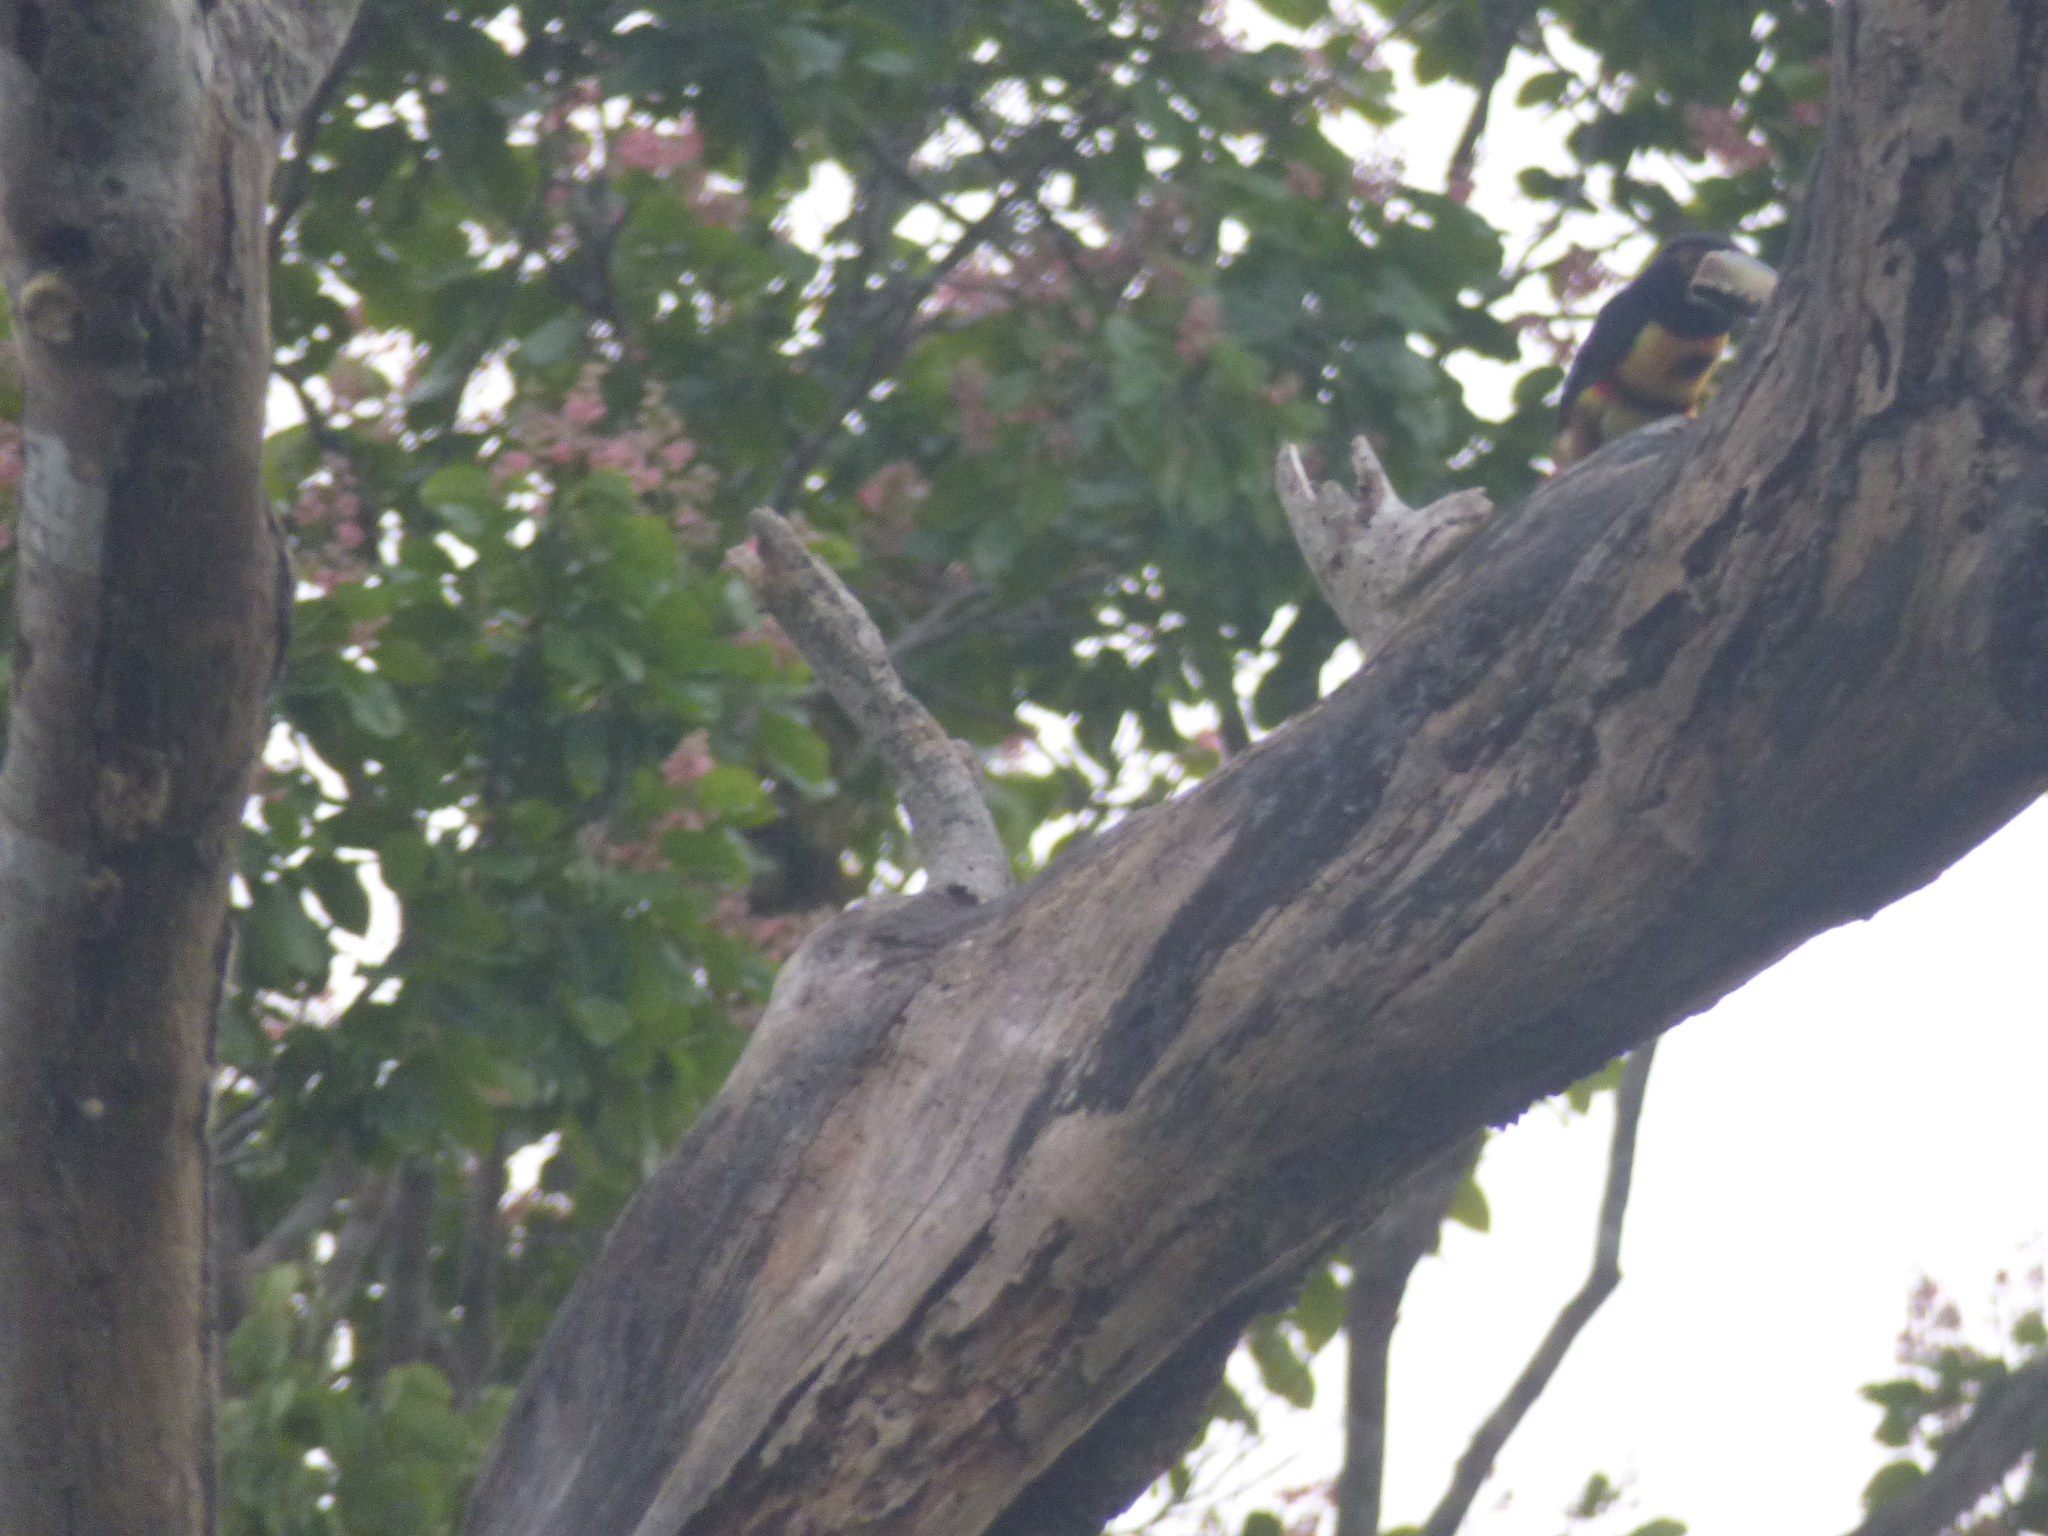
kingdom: Animalia
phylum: Chordata
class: Aves
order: Piciformes
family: Ramphastidae
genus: Pteroglossus
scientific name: Pteroglossus torquatus
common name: Collared aracari
